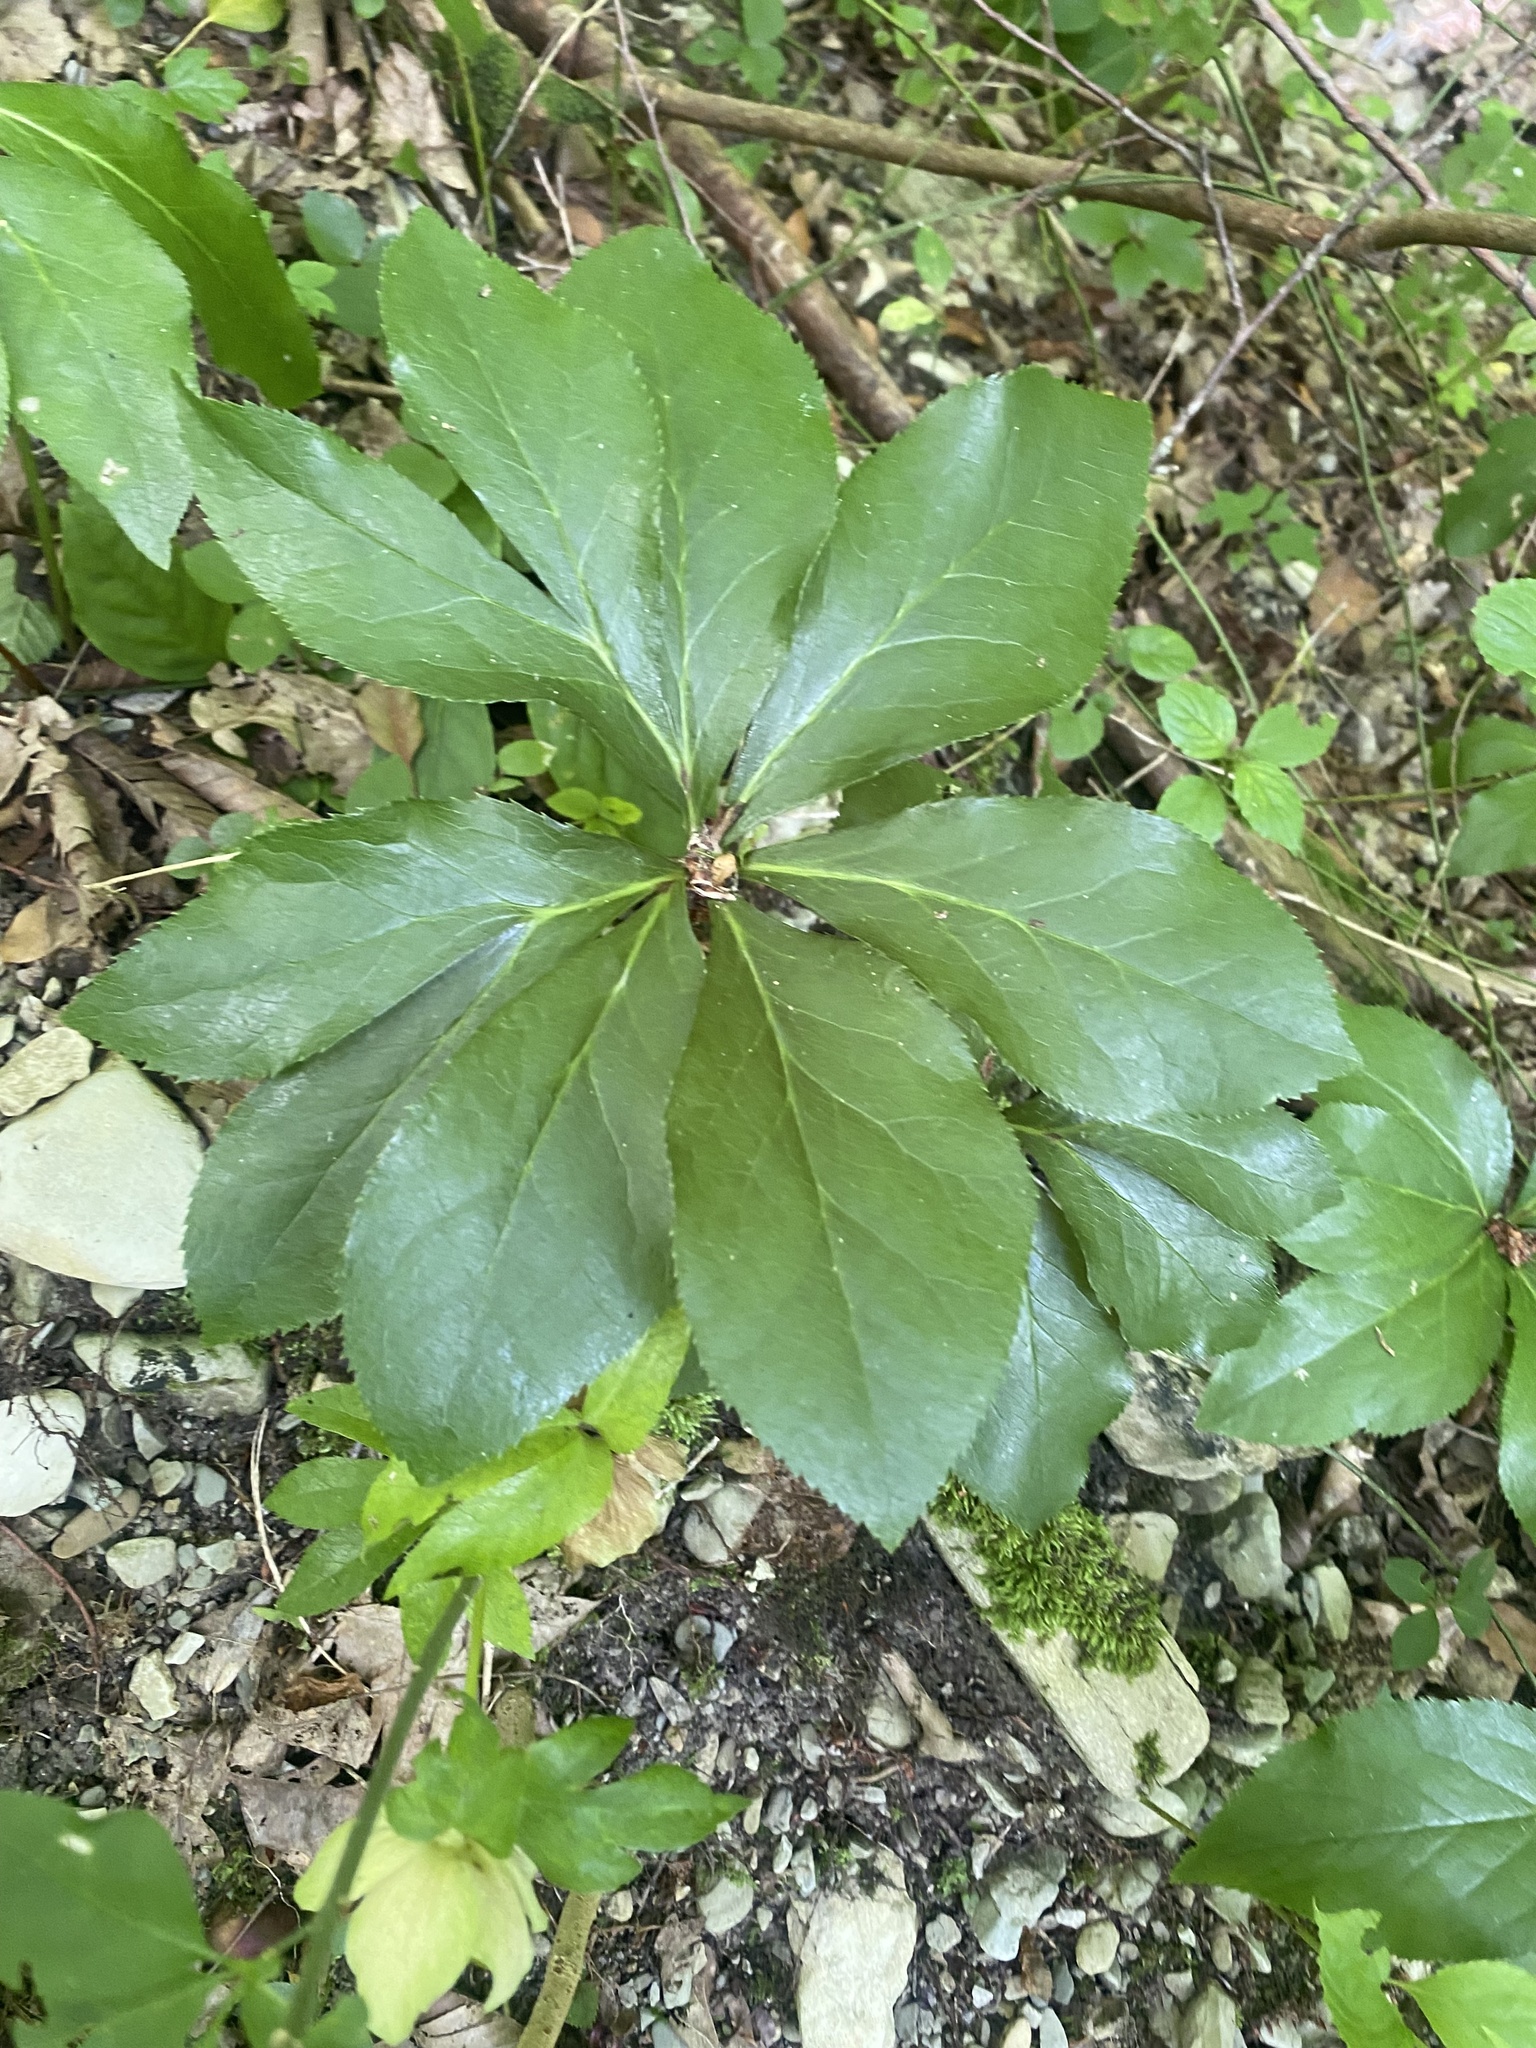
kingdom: Plantae
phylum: Tracheophyta
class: Magnoliopsida
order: Ranunculales
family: Ranunculaceae
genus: Helleborus
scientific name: Helleborus orientalis
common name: Lenten-rose
